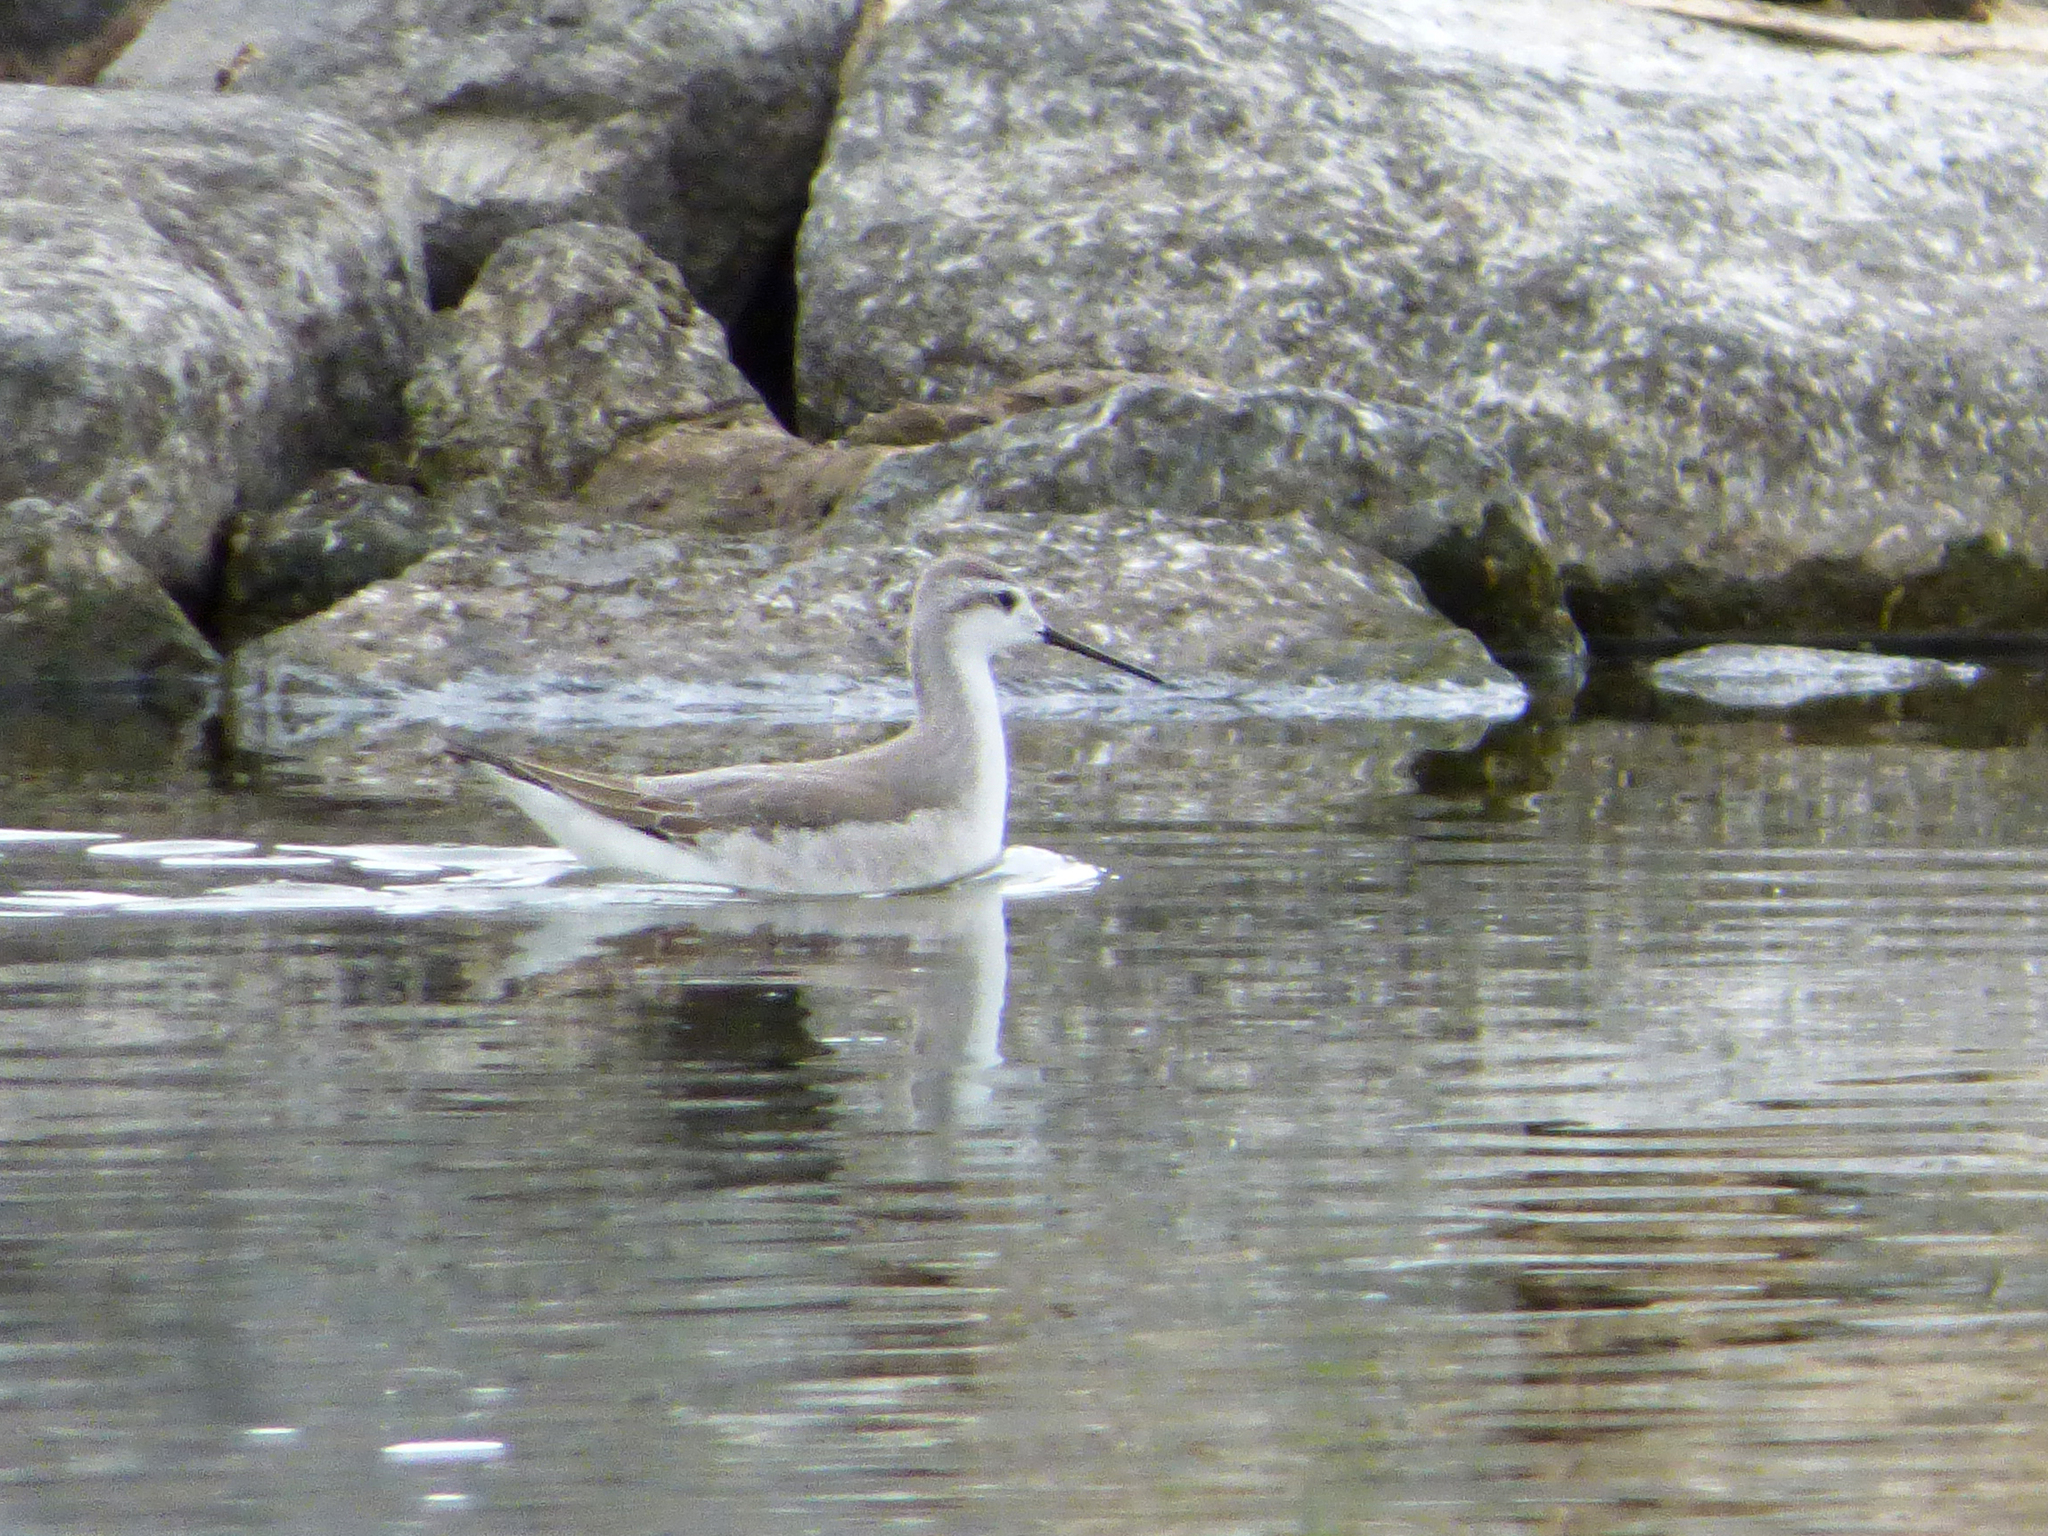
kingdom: Animalia
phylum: Chordata
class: Aves
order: Charadriiformes
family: Scolopacidae
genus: Phalaropus
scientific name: Phalaropus tricolor
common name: Wilson's phalarope
